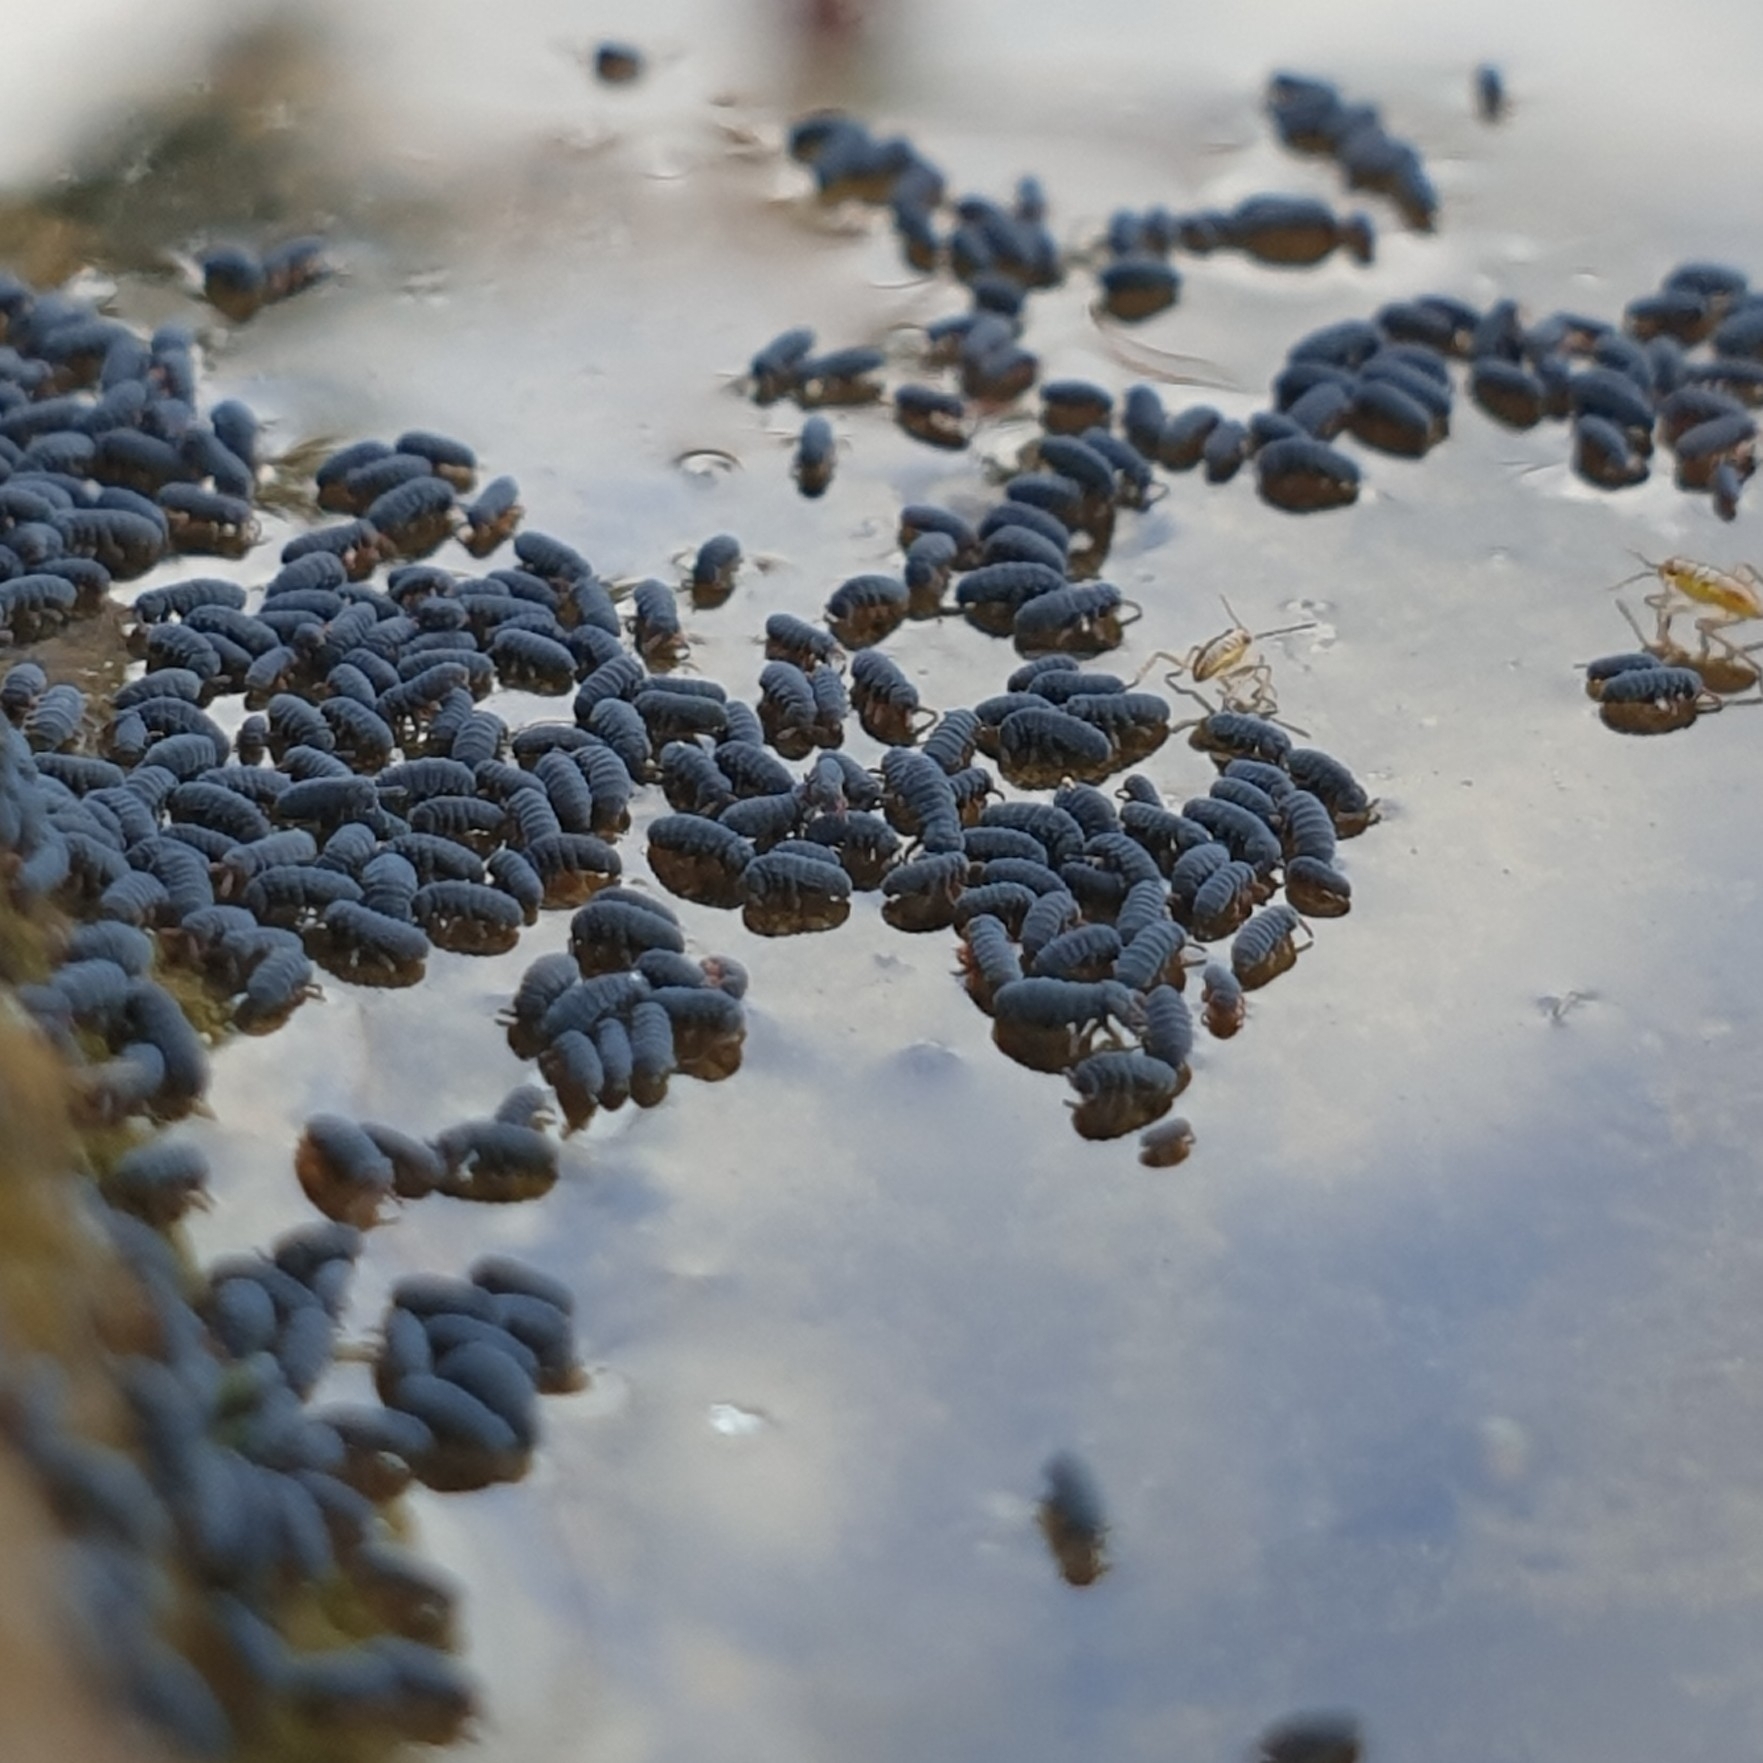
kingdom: Animalia
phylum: Arthropoda
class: Collembola
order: Poduromorpha
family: Poduridae
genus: Podura
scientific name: Podura aquatica
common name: Water springtail
